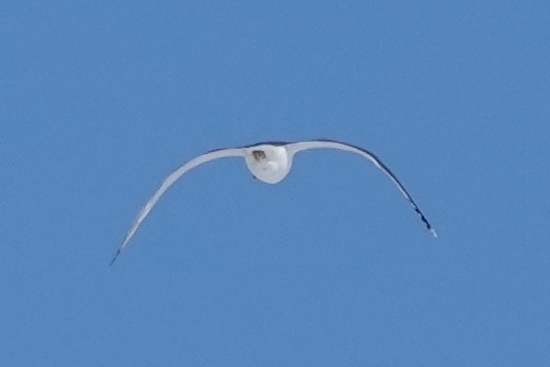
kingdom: Animalia
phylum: Chordata
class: Aves
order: Charadriiformes
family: Laridae
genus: Larus
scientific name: Larus fuscus
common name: Lesser black-backed gull
